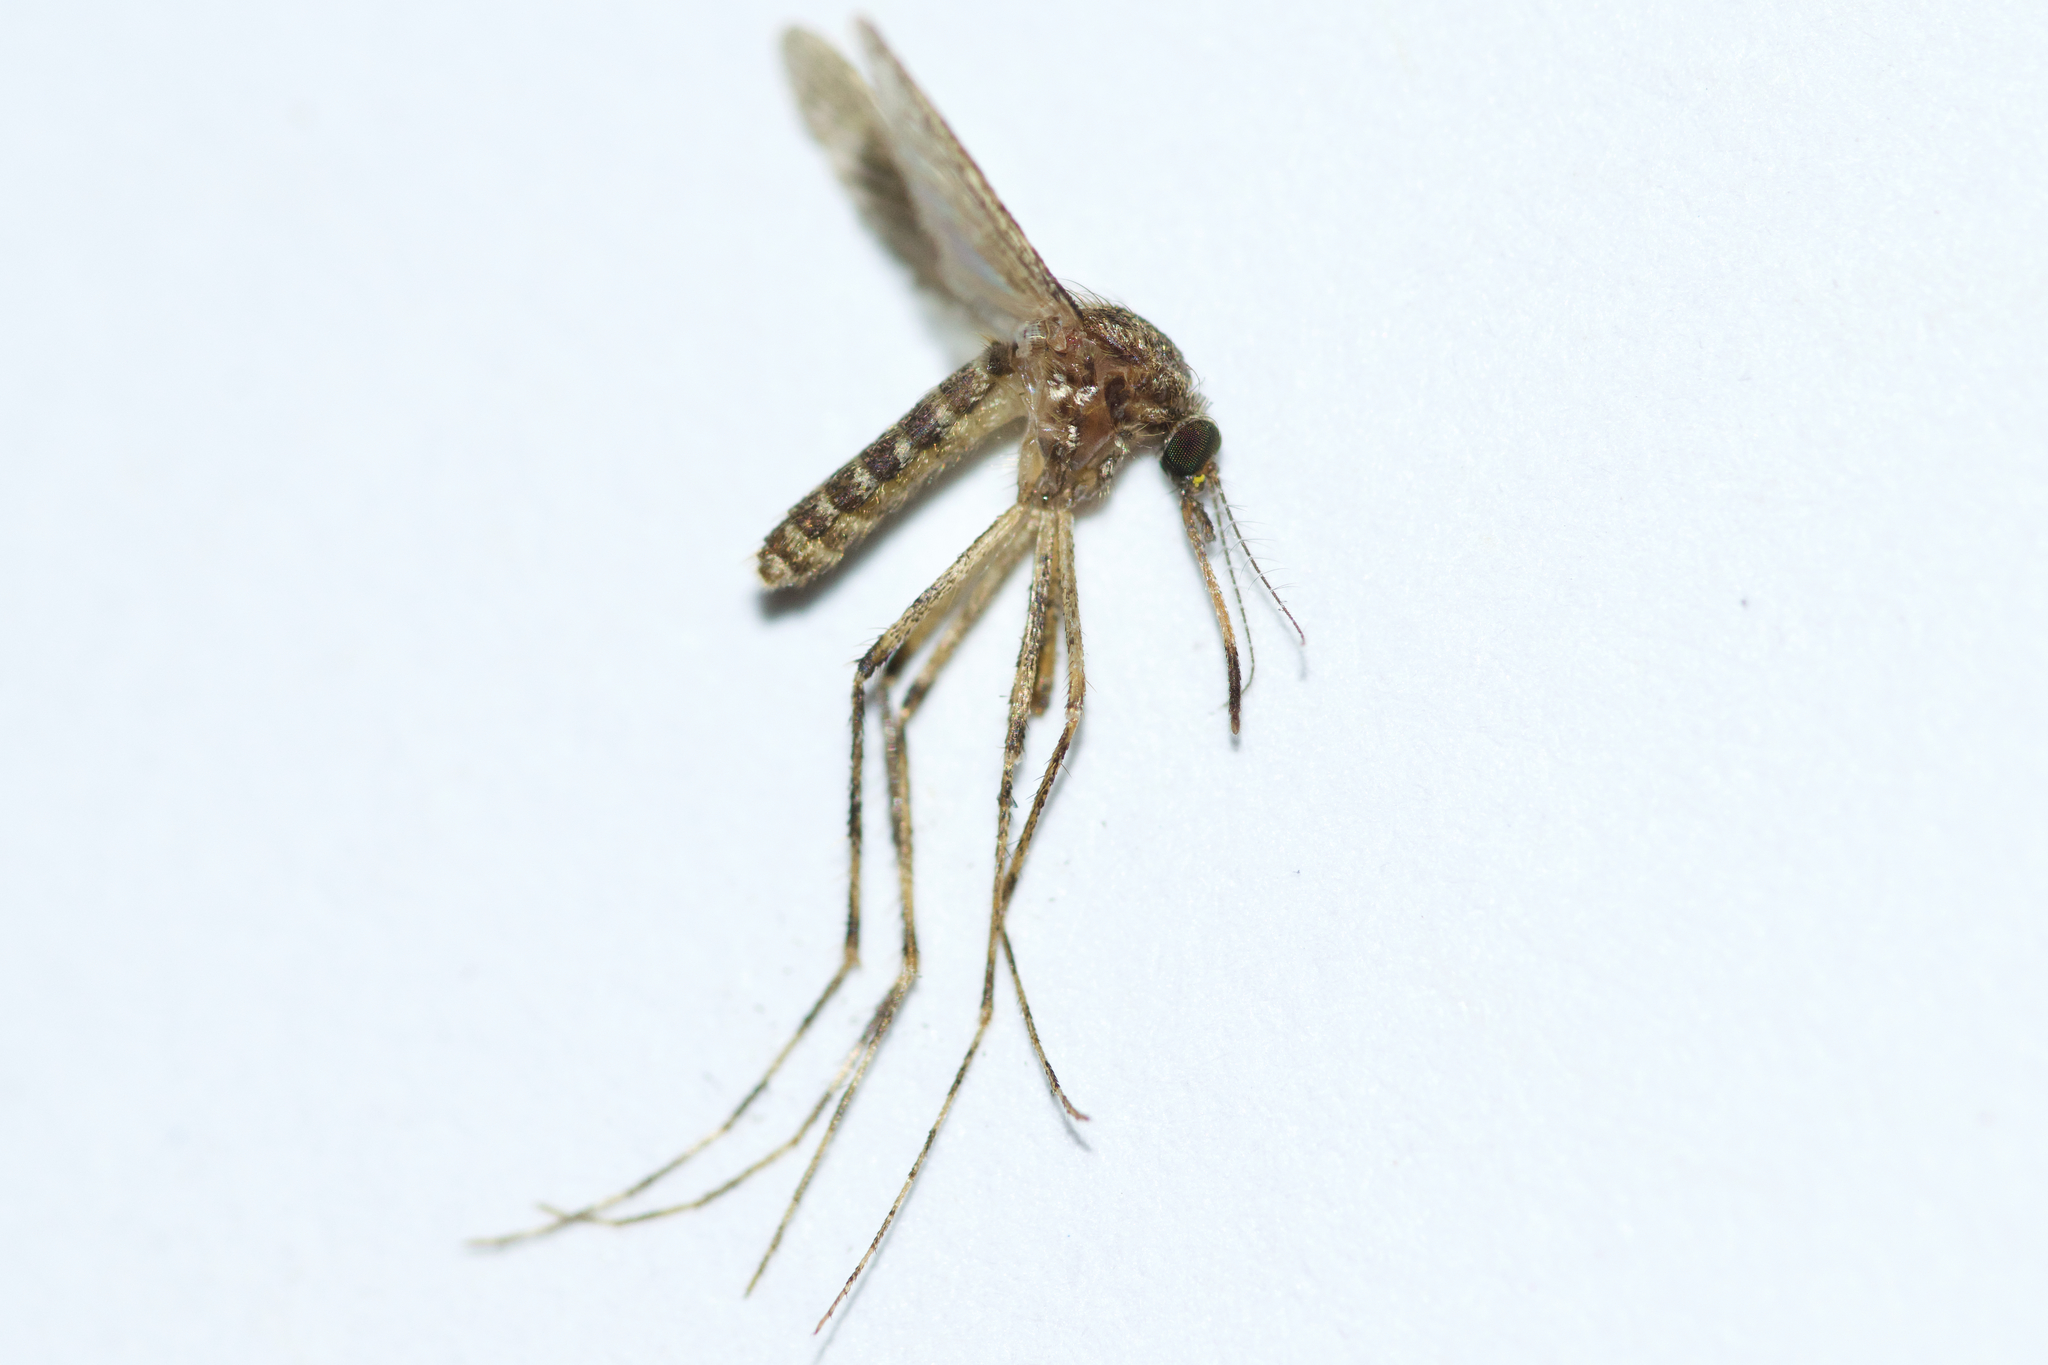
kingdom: Animalia
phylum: Arthropoda
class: Insecta
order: Diptera
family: Culicidae
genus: Coquillettidia
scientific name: Coquillettidia perturbans
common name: Cattail mosquito
